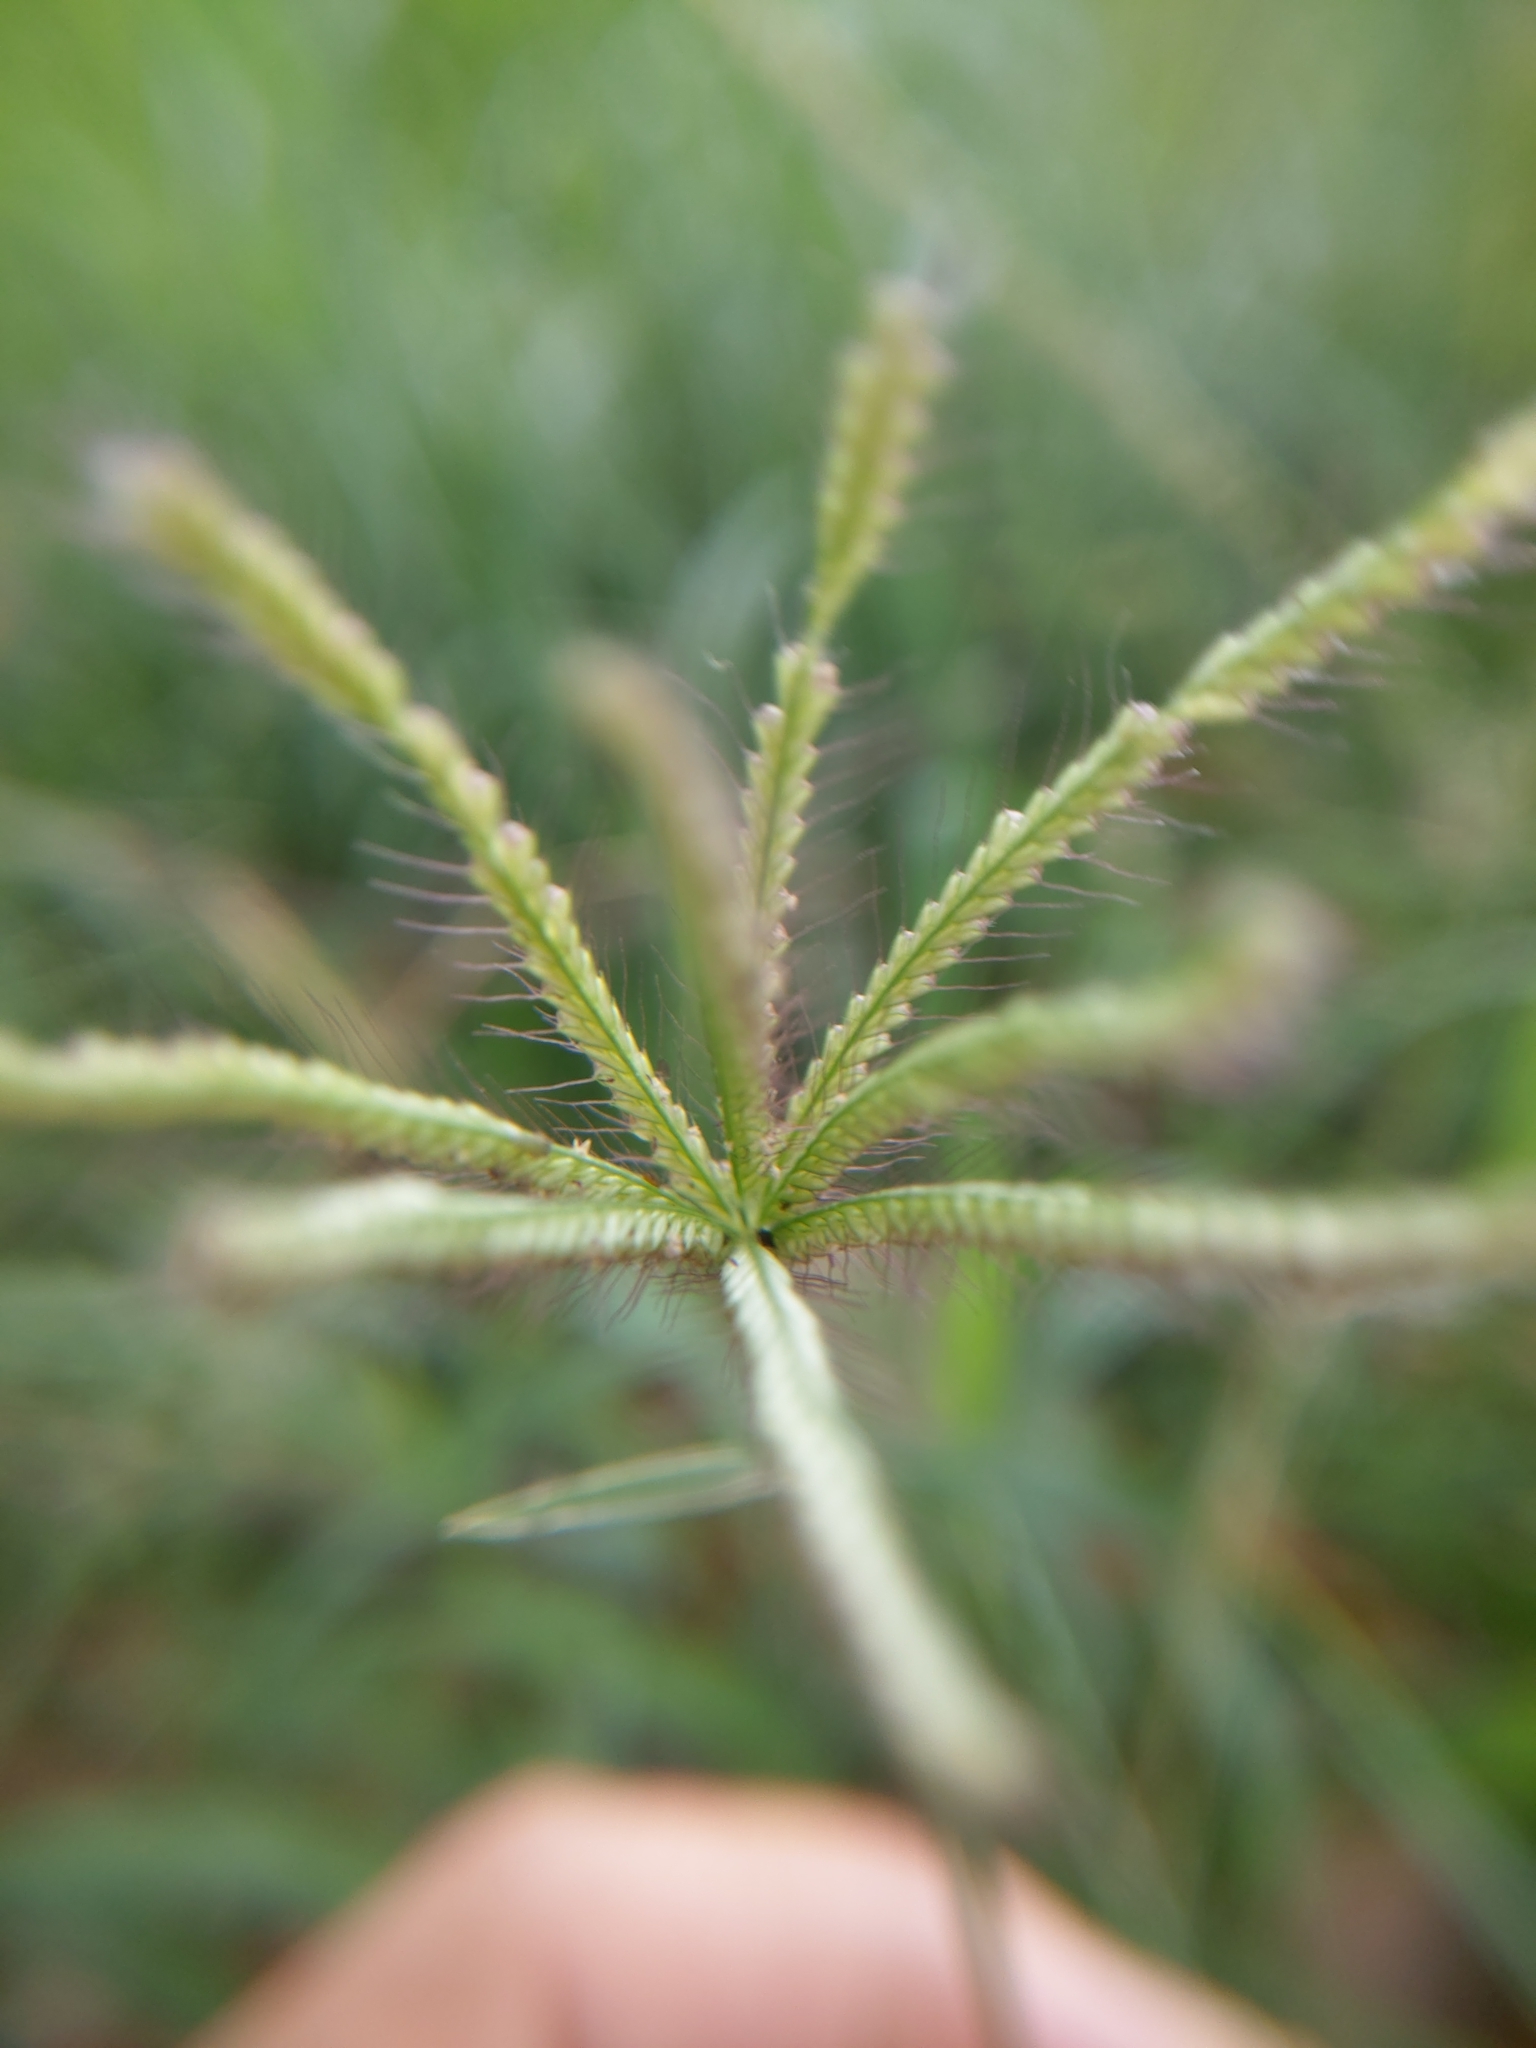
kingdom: Plantae
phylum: Tracheophyta
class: Liliopsida
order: Poales
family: Poaceae
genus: Chloris
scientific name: Chloris barbata
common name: Swollen fingergrass
